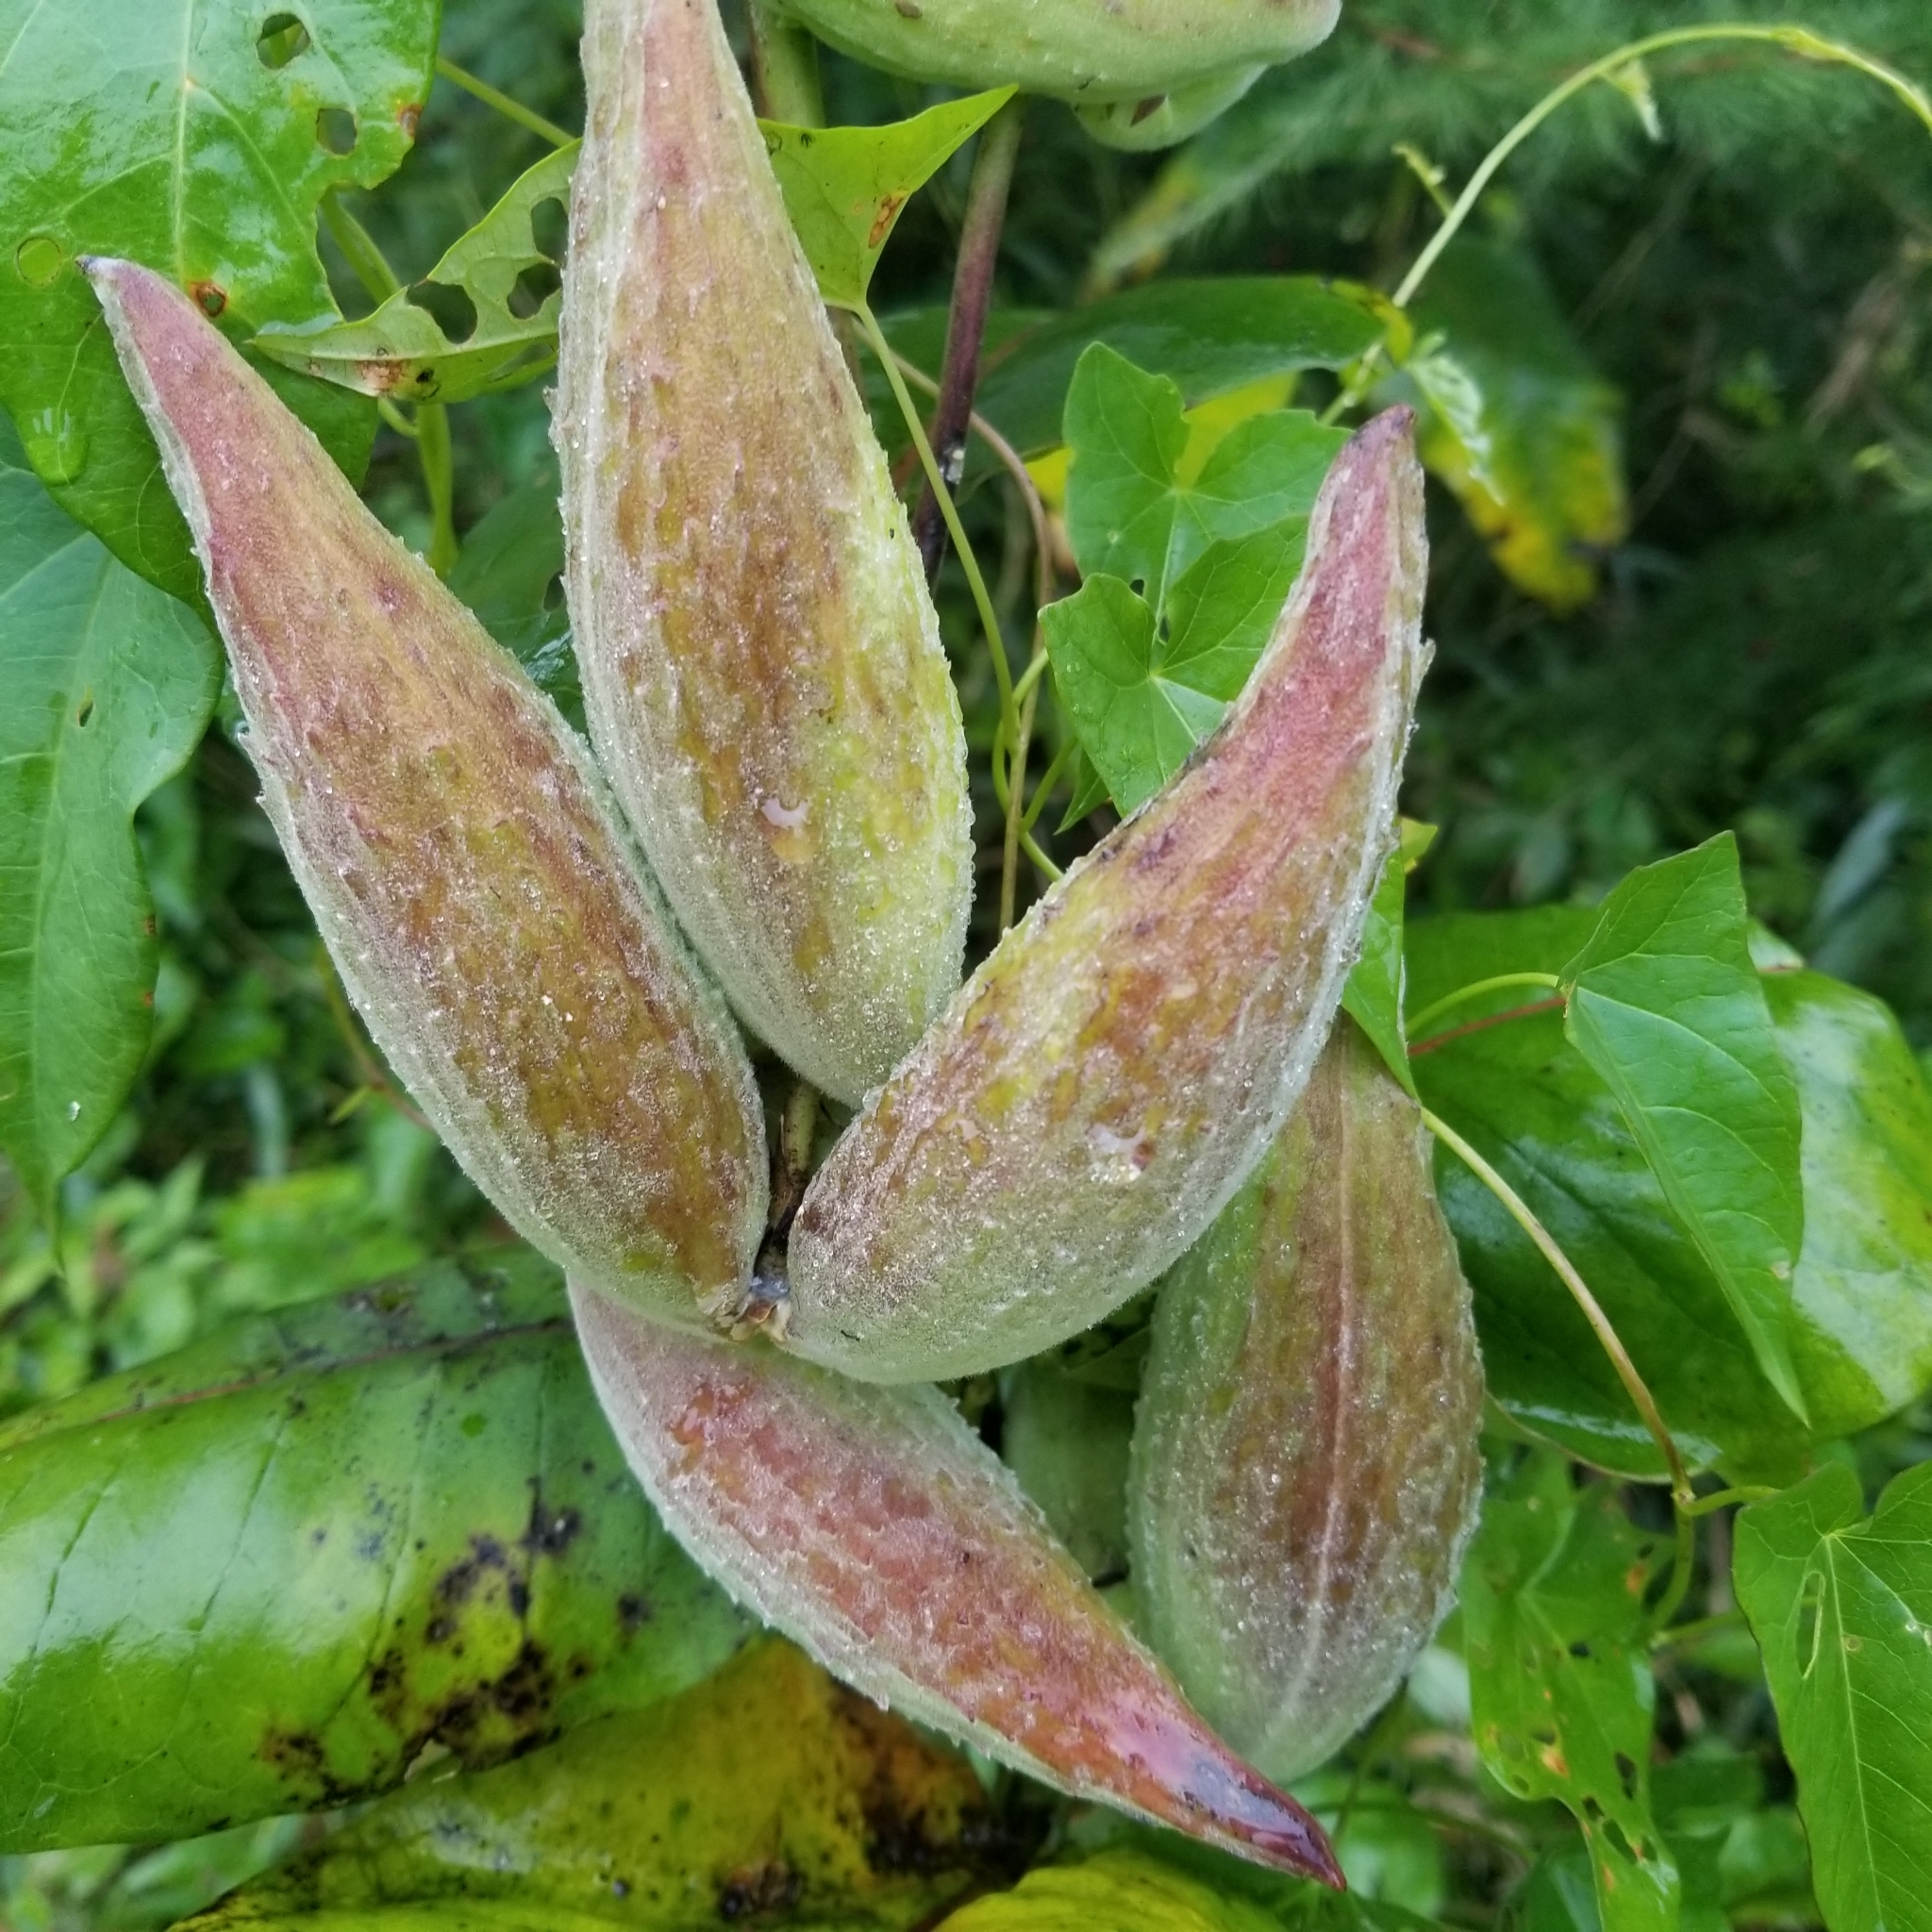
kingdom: Plantae
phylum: Tracheophyta
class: Magnoliopsida
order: Gentianales
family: Apocynaceae
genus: Asclepias
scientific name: Asclepias syriaca
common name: Common milkweed
